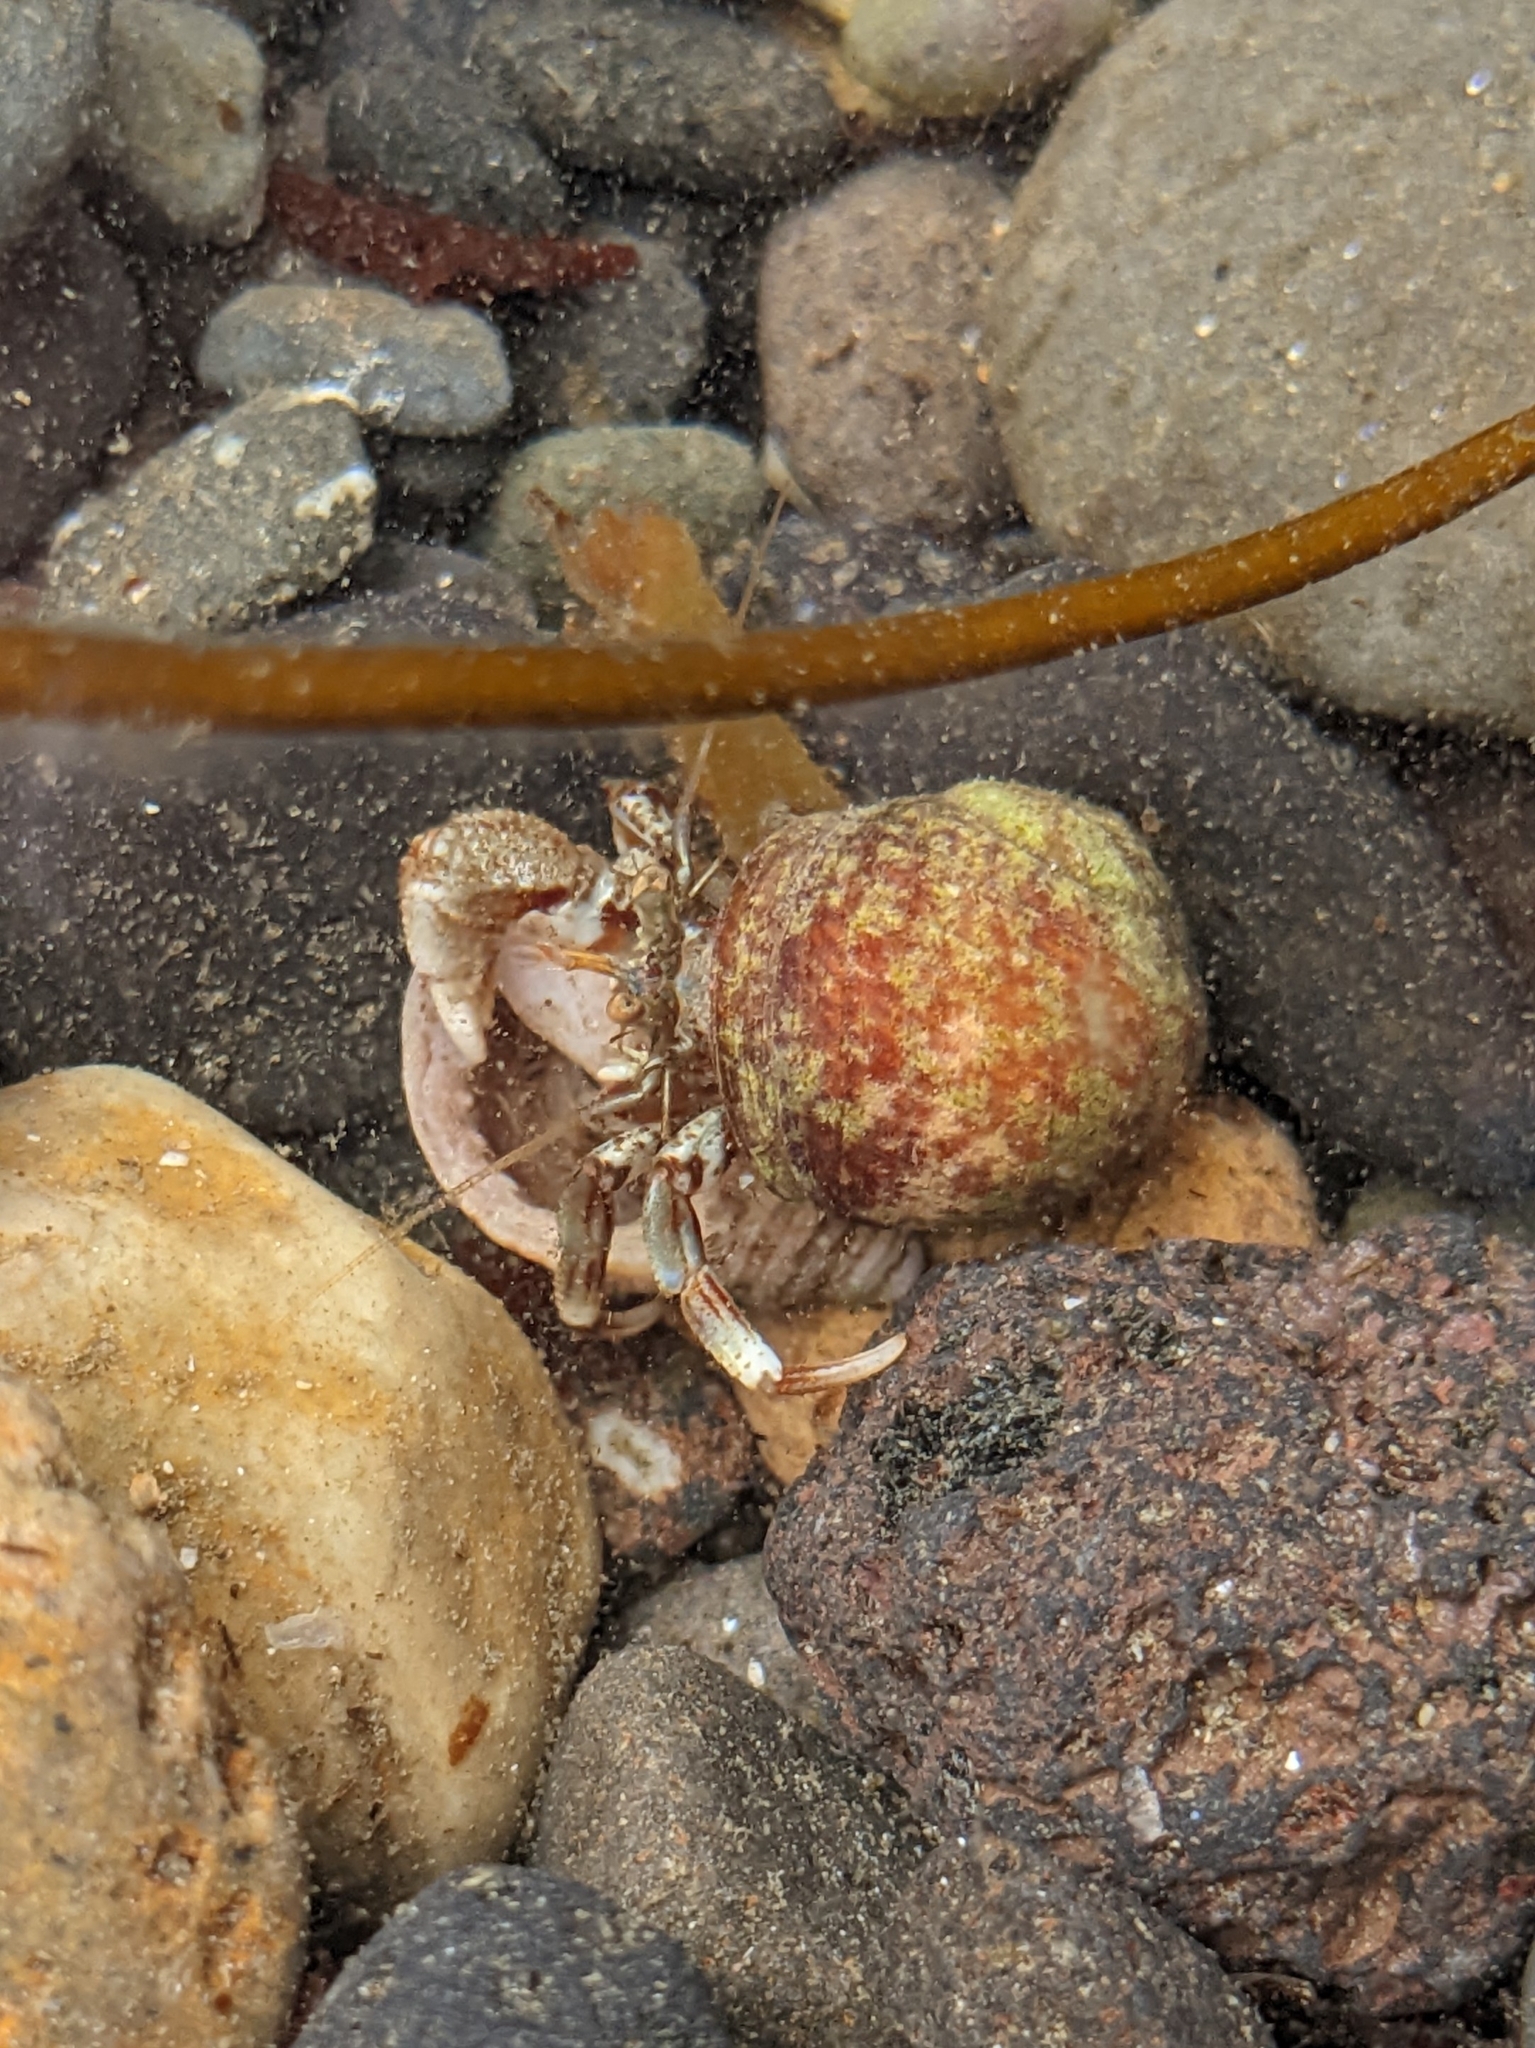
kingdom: Animalia
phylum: Arthropoda
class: Malacostraca
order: Decapoda
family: Paguridae
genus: Pagurus
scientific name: Pagurus bernhardus
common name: Hermit crab
